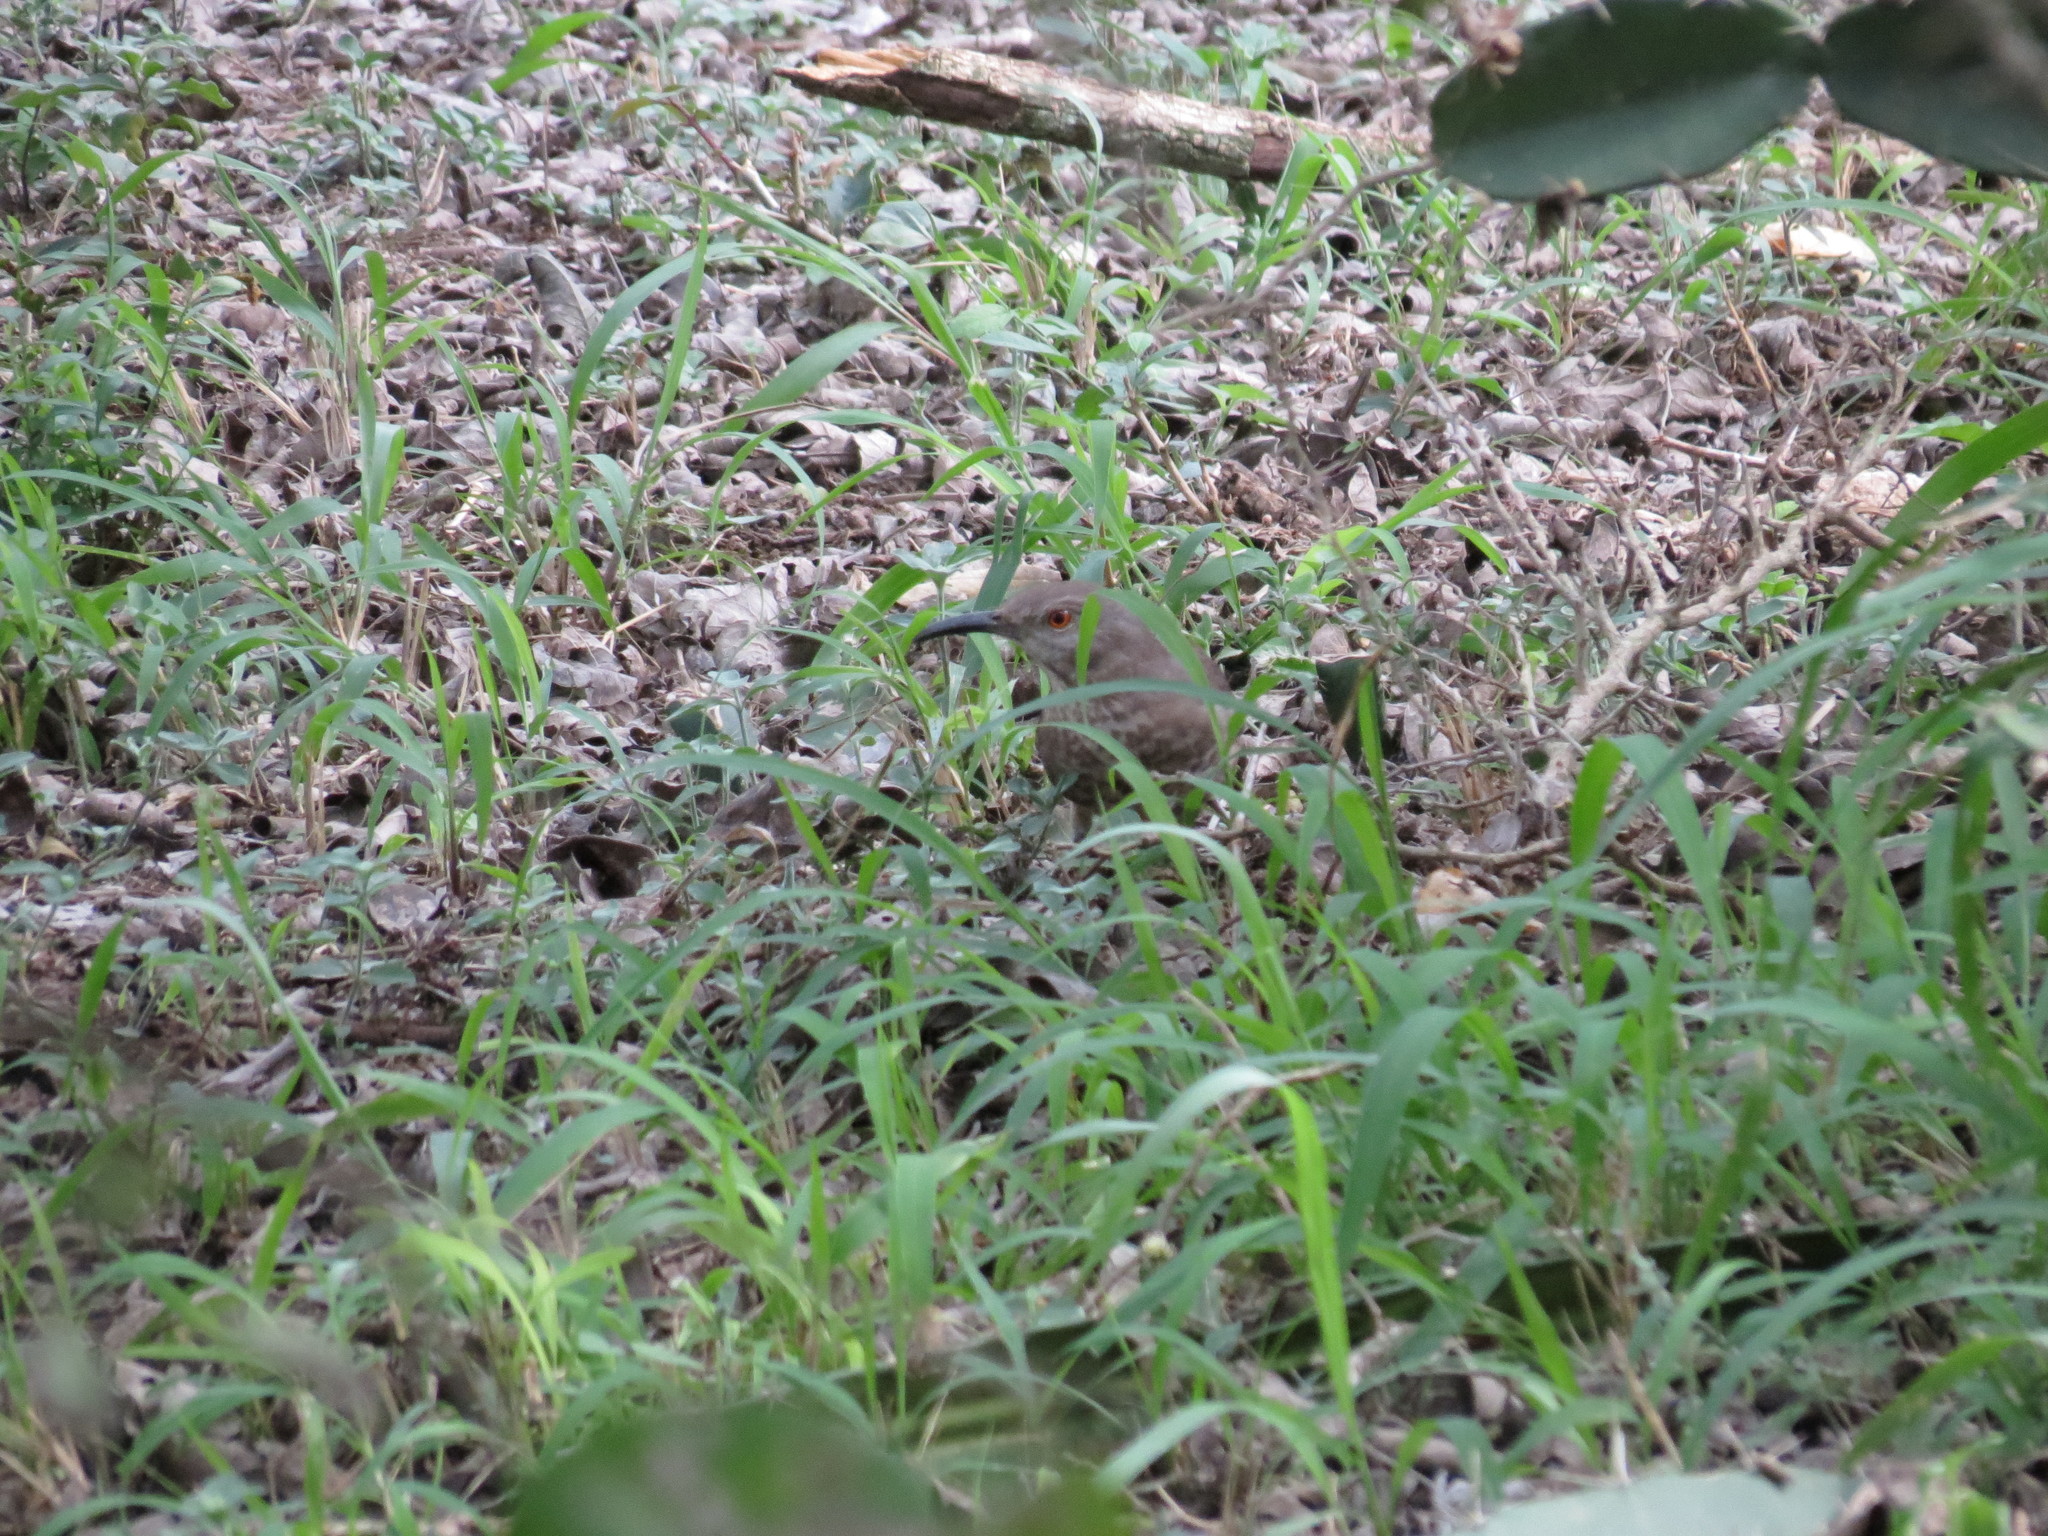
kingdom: Animalia
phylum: Chordata
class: Aves
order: Passeriformes
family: Mimidae
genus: Toxostoma
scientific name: Toxostoma curvirostre
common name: Curve-billed thrasher
